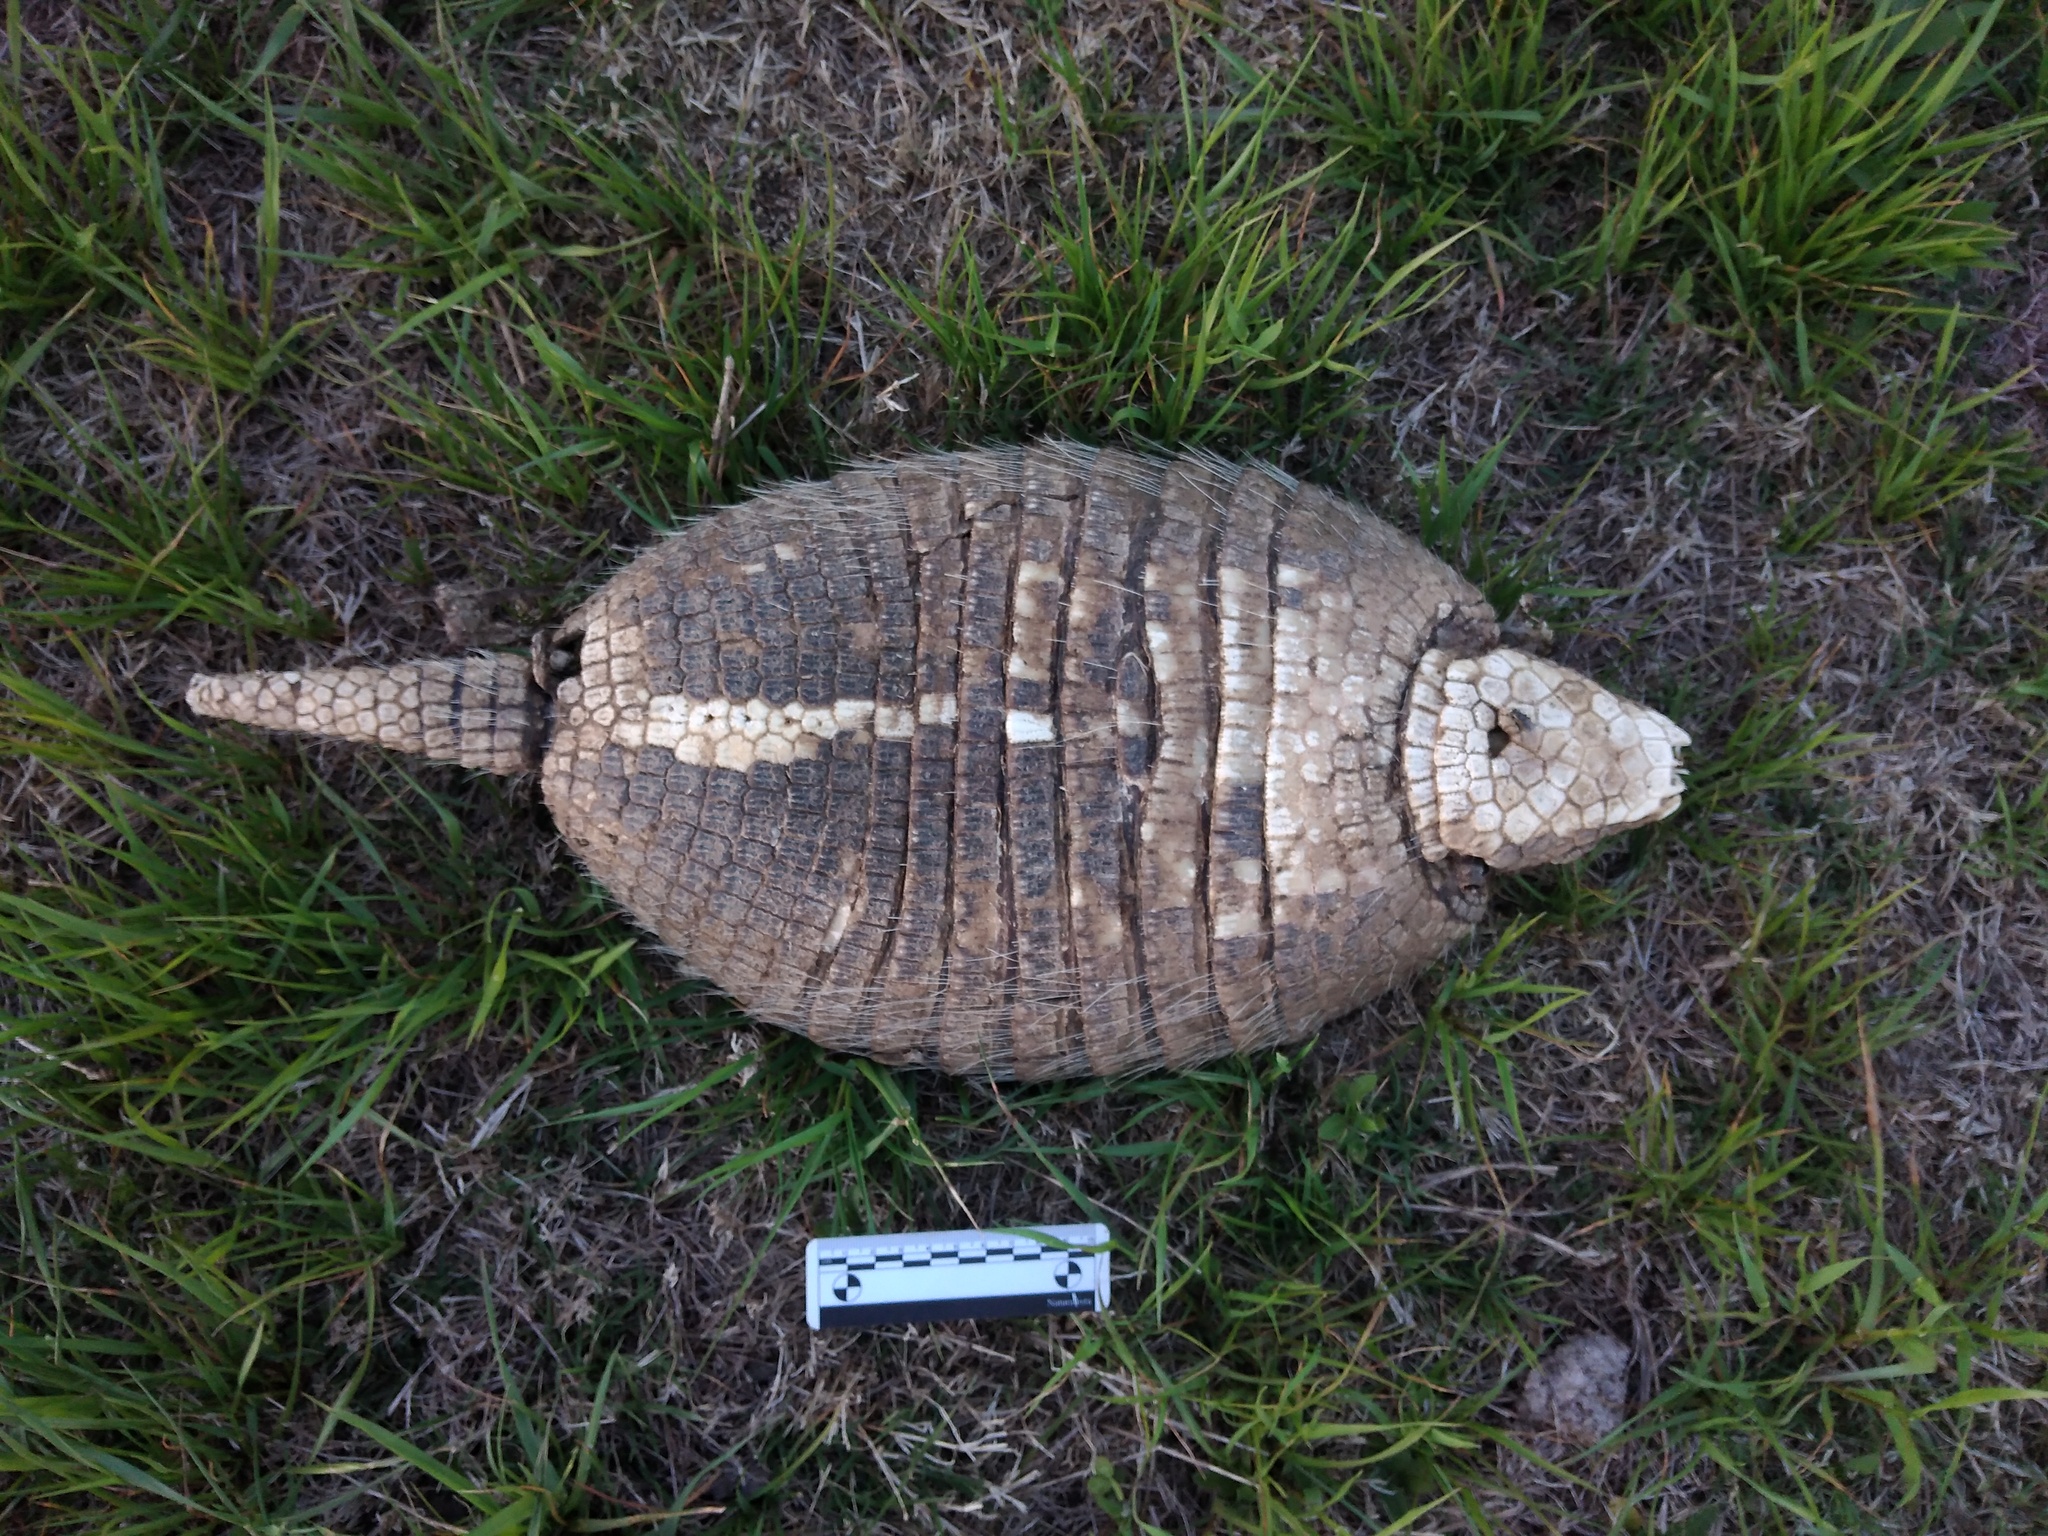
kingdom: Animalia
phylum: Chordata
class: Mammalia
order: Cingulata
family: Dasypodidae
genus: Euphractus
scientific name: Euphractus sexcinctus
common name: Six-banded armadillo
